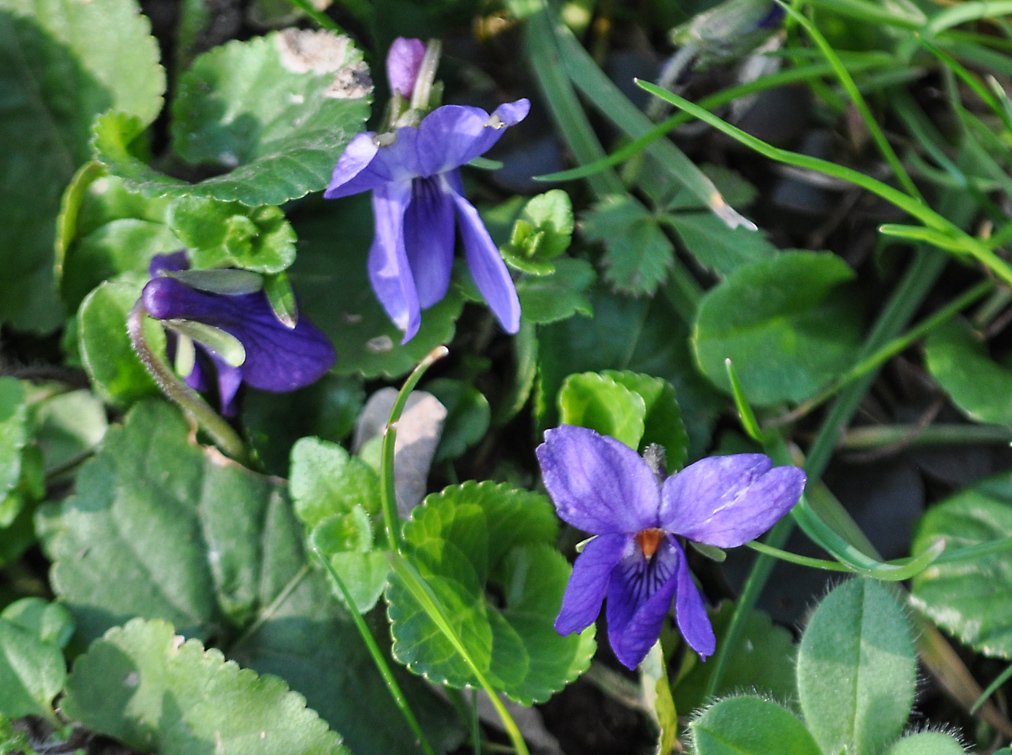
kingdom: Plantae
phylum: Tracheophyta
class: Magnoliopsida
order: Malpighiales
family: Violaceae
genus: Viola
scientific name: Viola odorata
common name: Sweet violet
